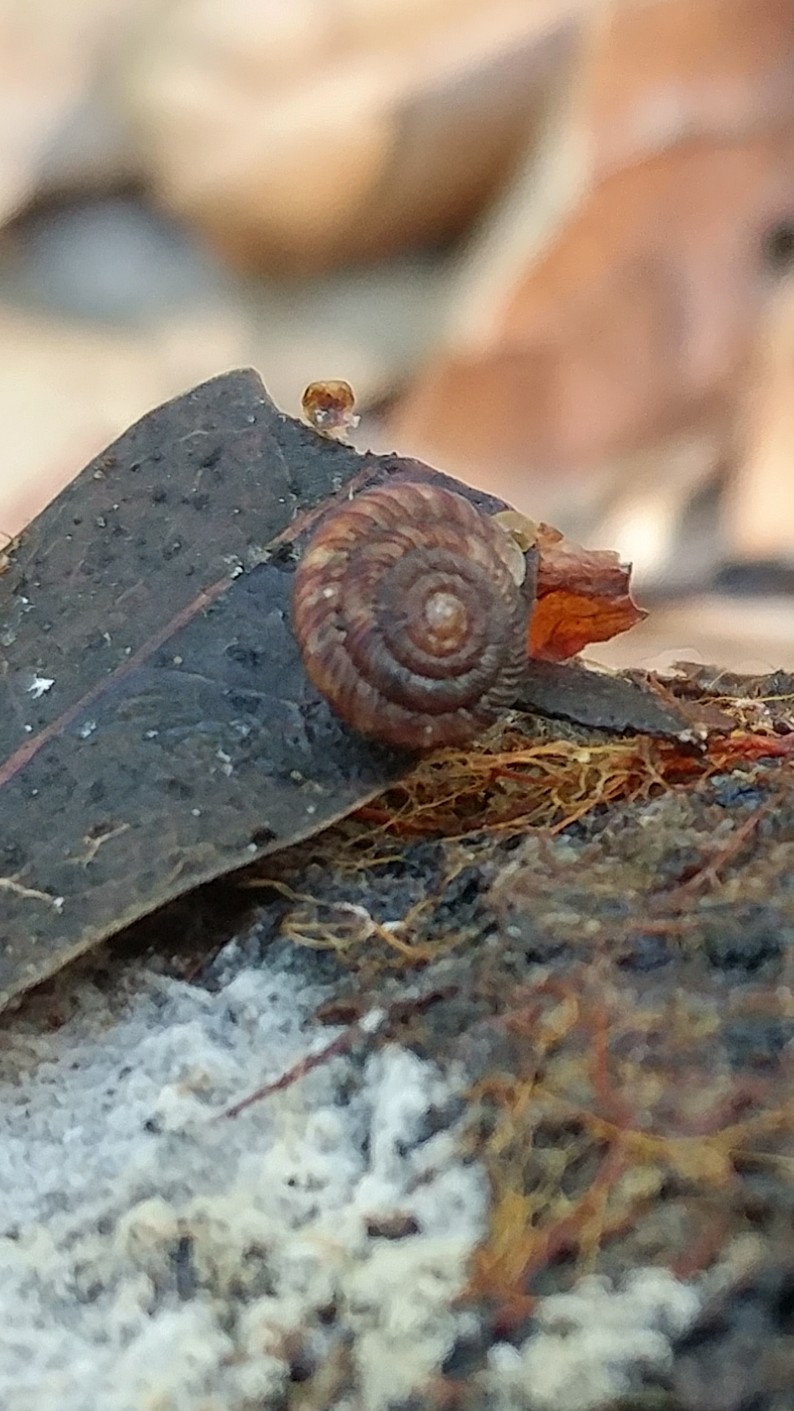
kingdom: Animalia
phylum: Mollusca
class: Gastropoda
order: Stylommatophora
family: Discidae
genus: Discus
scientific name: Discus rotundatus
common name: Rounded snail
